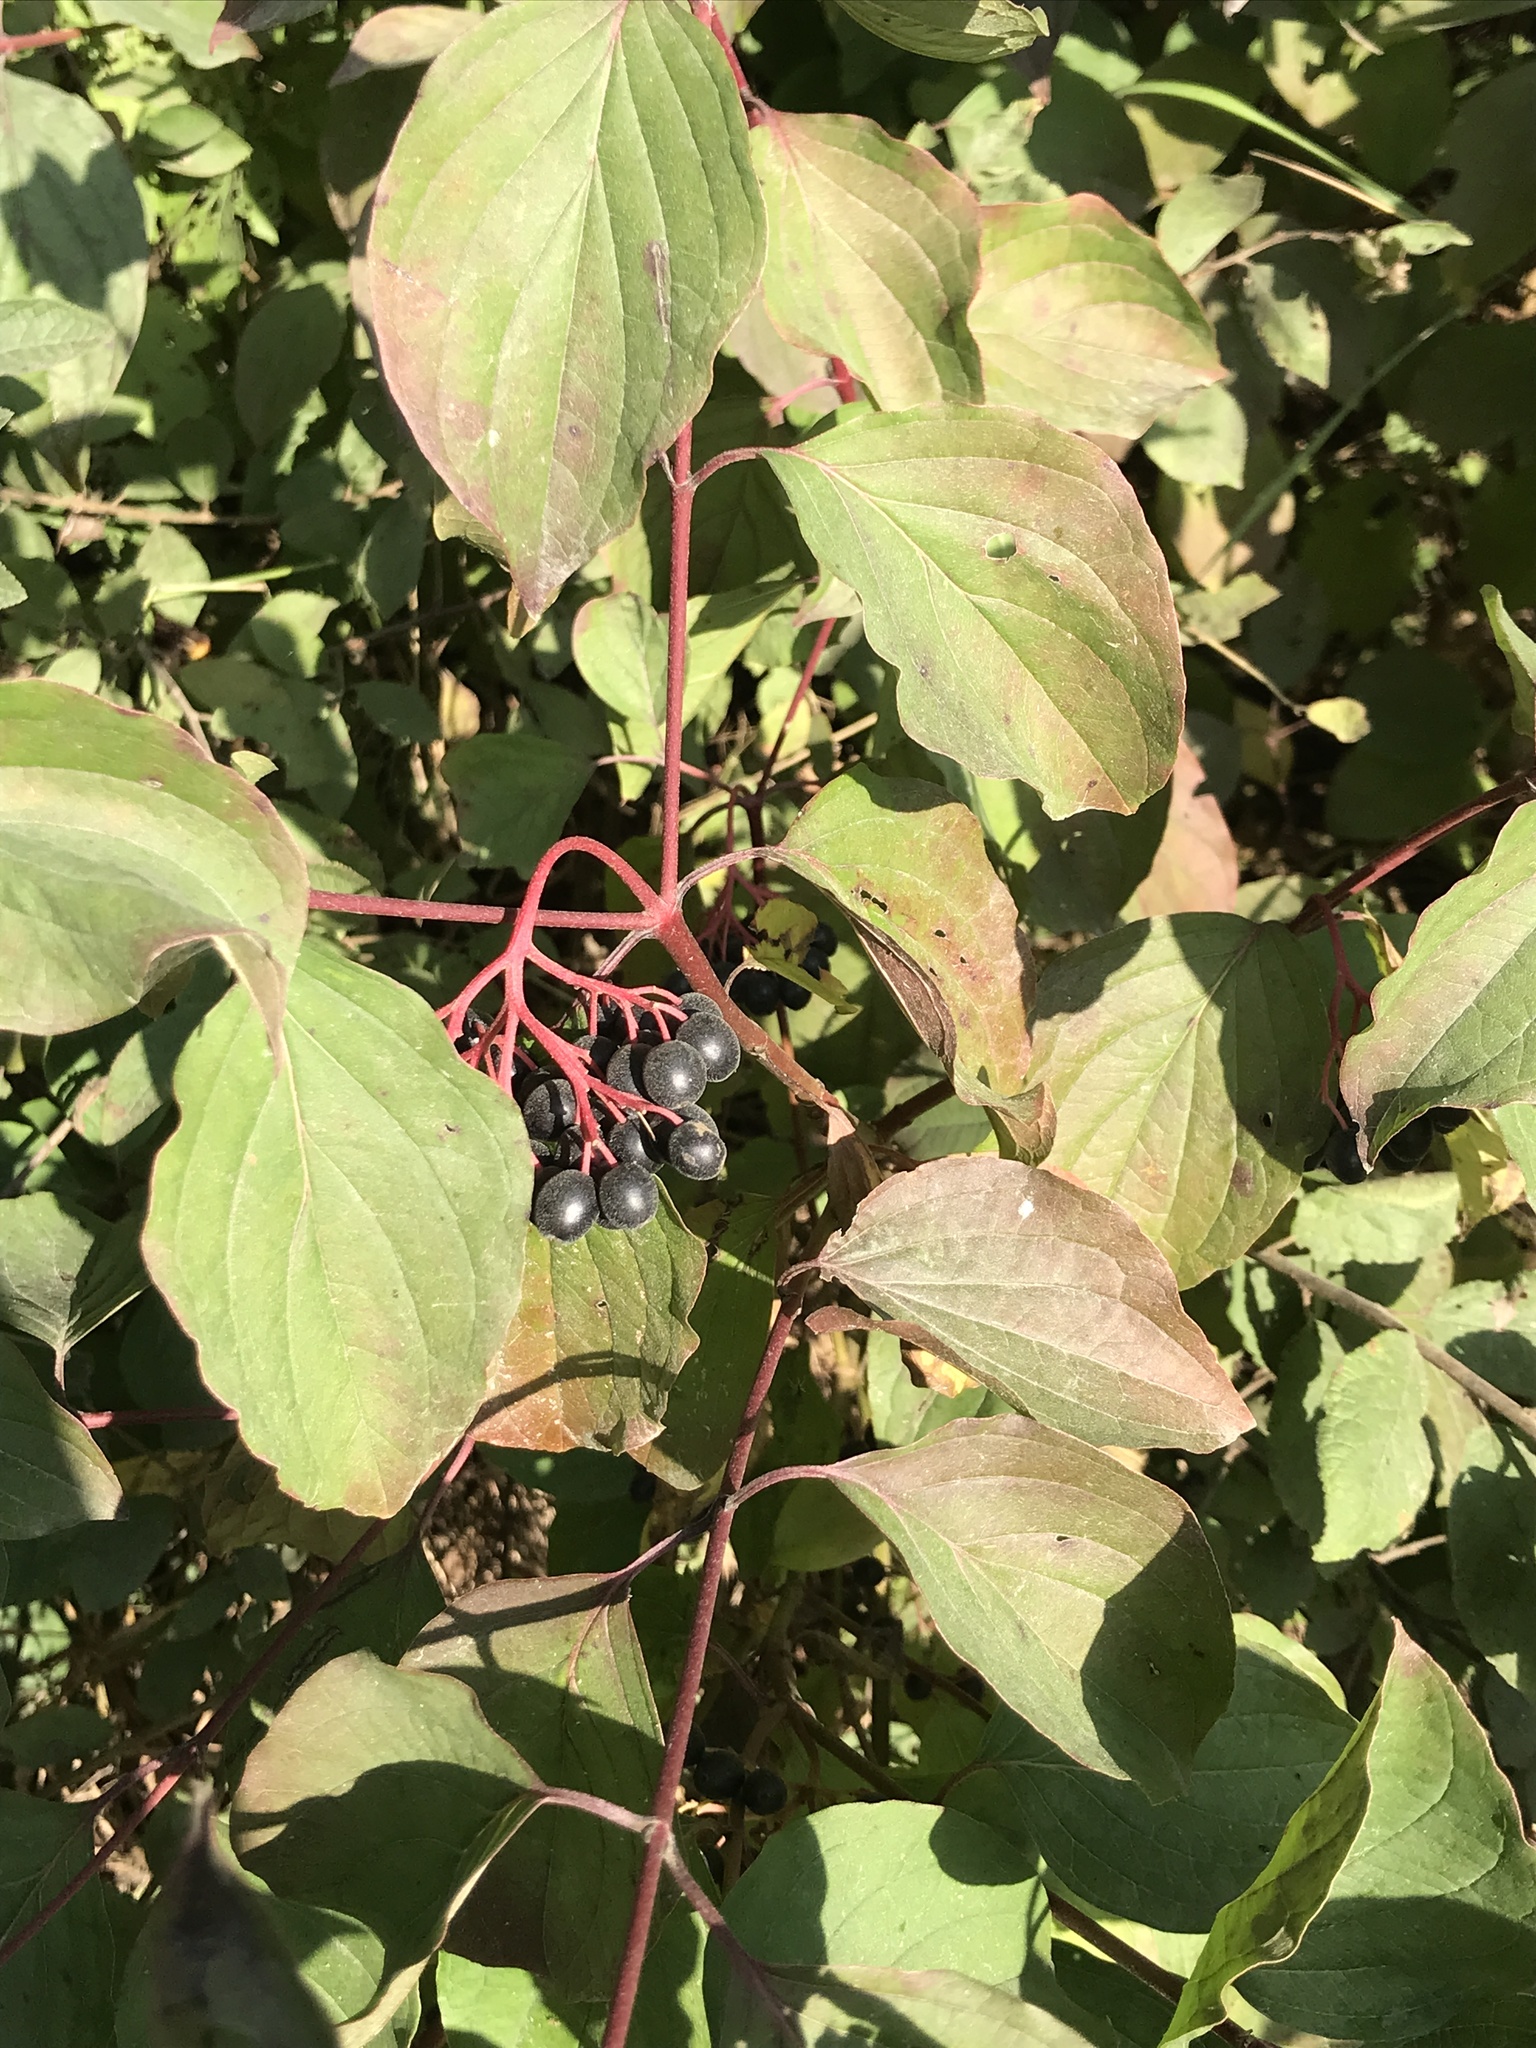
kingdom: Plantae
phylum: Tracheophyta
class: Magnoliopsida
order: Cornales
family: Cornaceae
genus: Cornus
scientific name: Cornus sanguinea
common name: Dogwood
